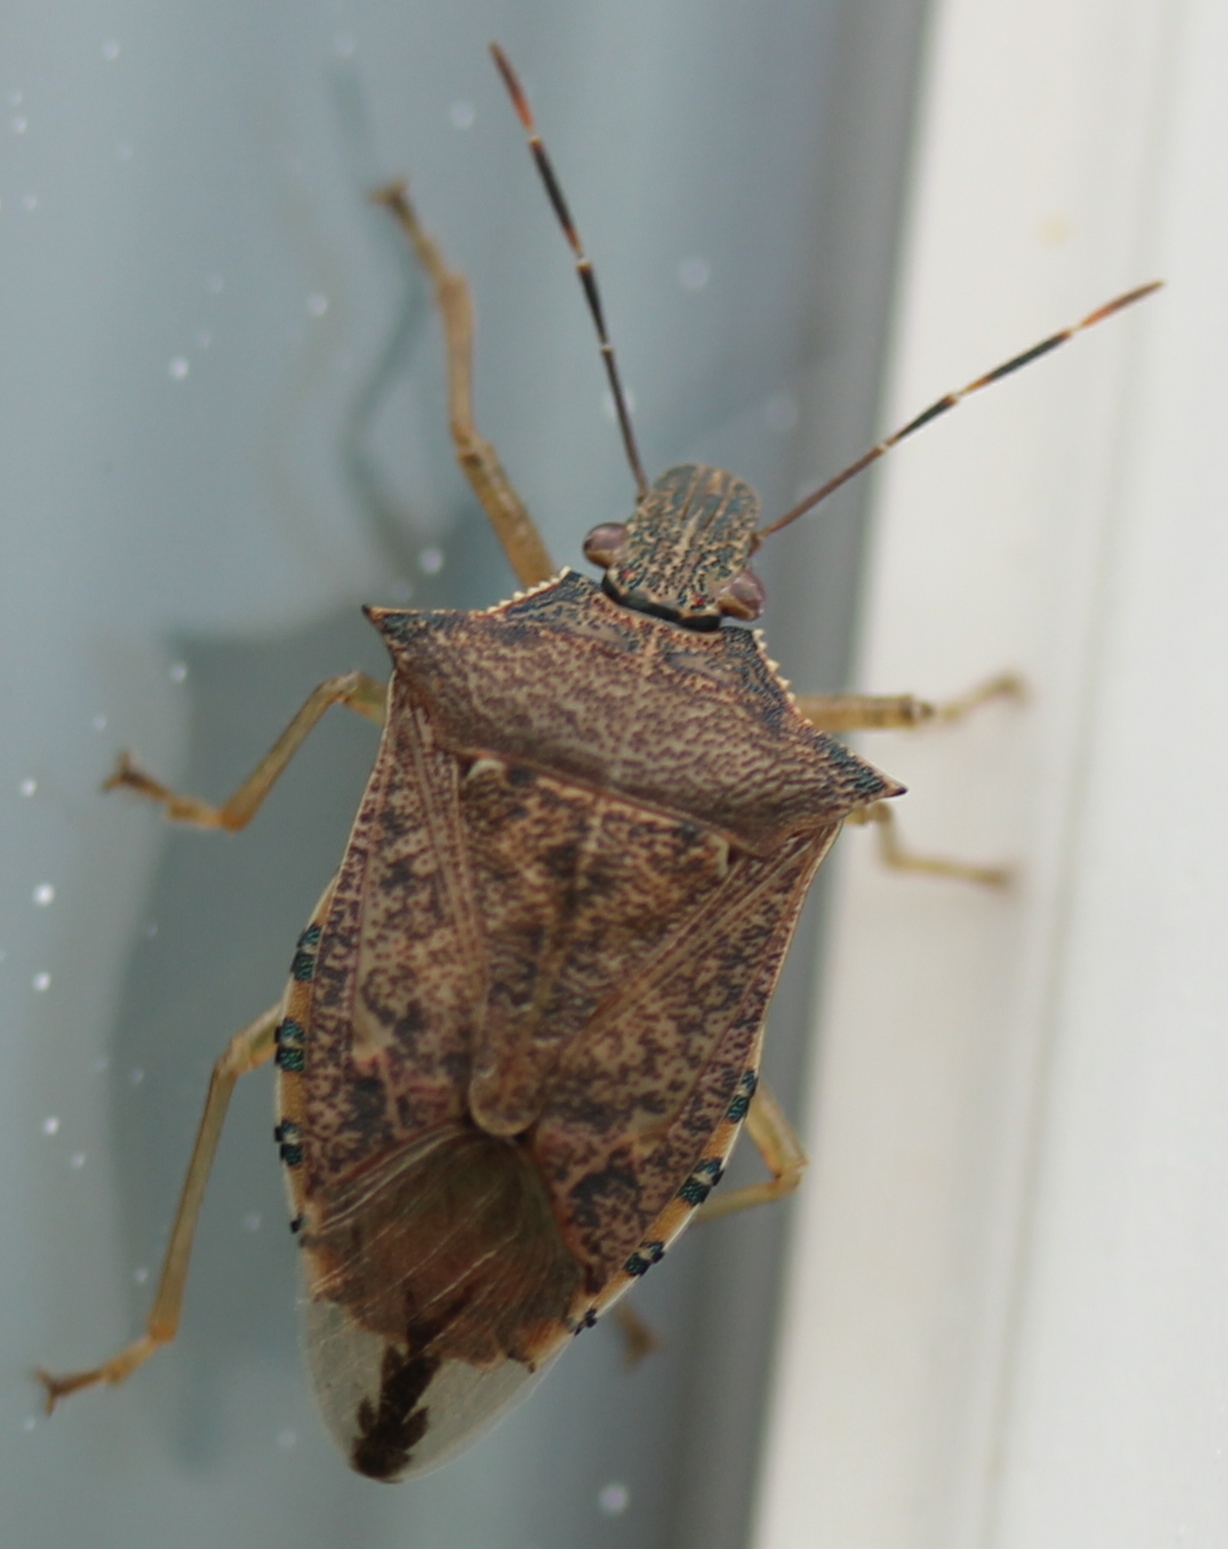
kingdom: Animalia
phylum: Arthropoda
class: Insecta
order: Hemiptera
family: Pentatomidae
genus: Podisus
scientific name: Podisus maculiventris
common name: Spined soldier bug
